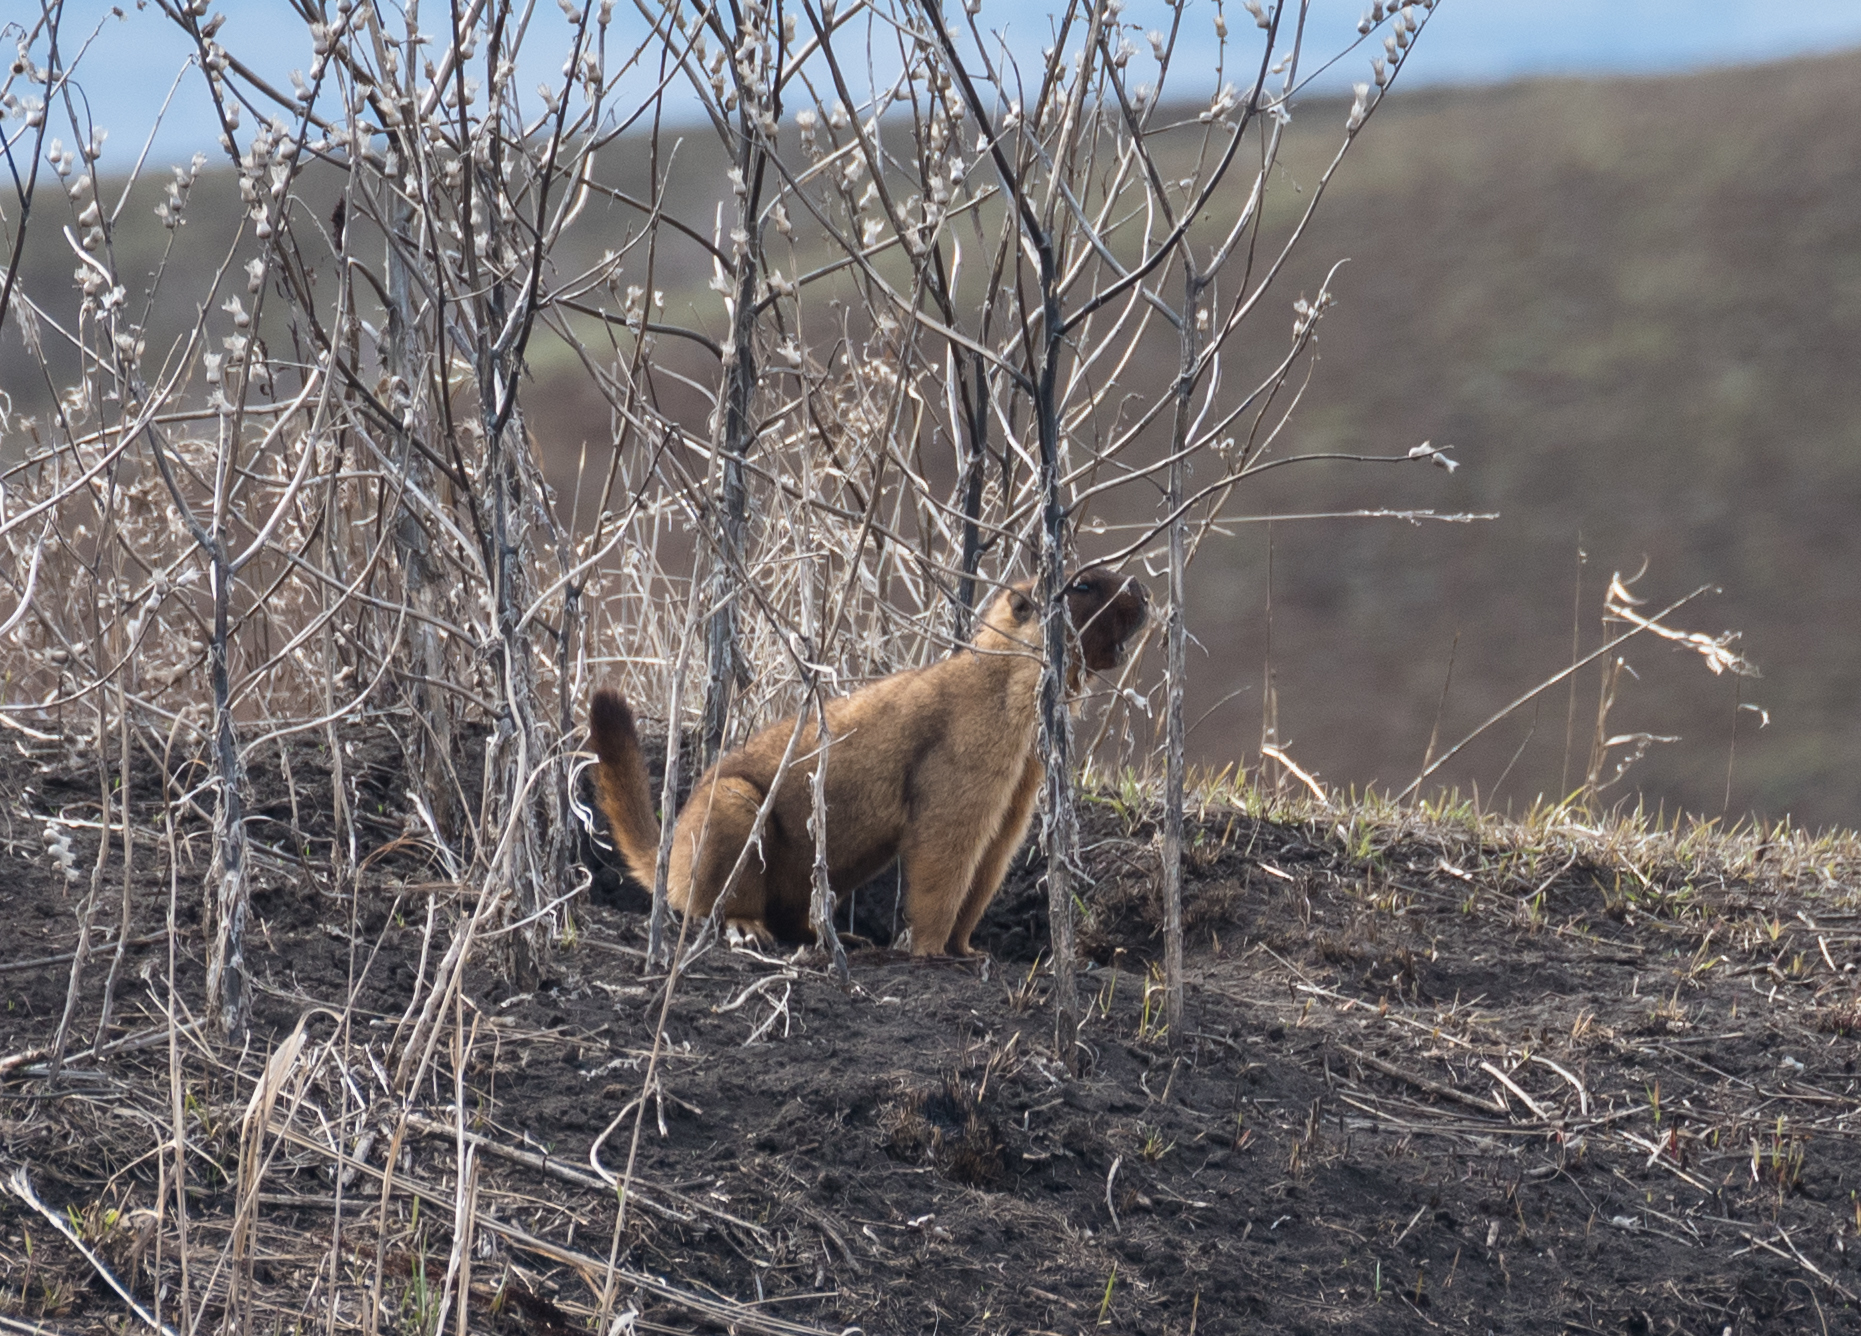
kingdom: Animalia
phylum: Chordata
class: Mammalia
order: Rodentia
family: Sciuridae
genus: Marmota
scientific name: Marmota bobak
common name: Bobak marmot
